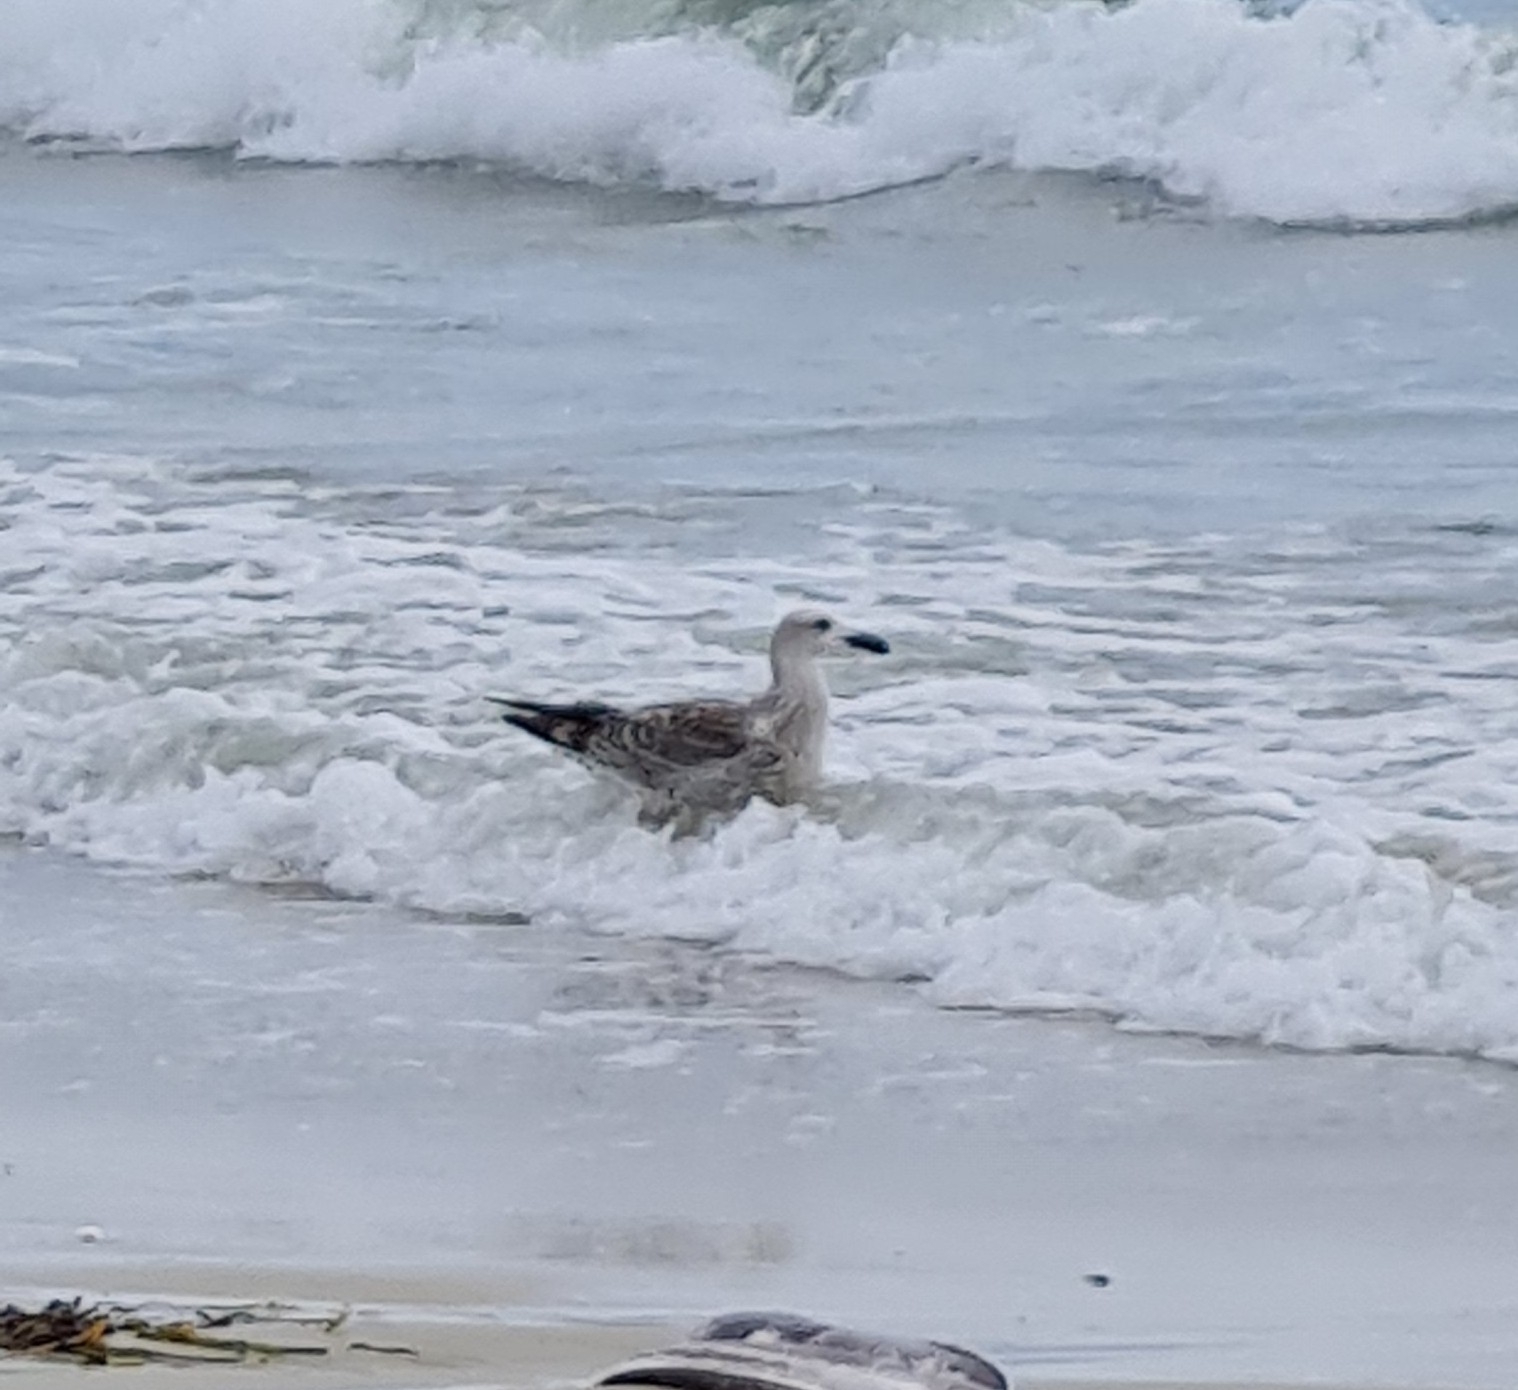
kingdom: Animalia
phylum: Chordata
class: Aves
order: Charadriiformes
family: Laridae
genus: Larus
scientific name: Larus marinus
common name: Great black-backed gull
